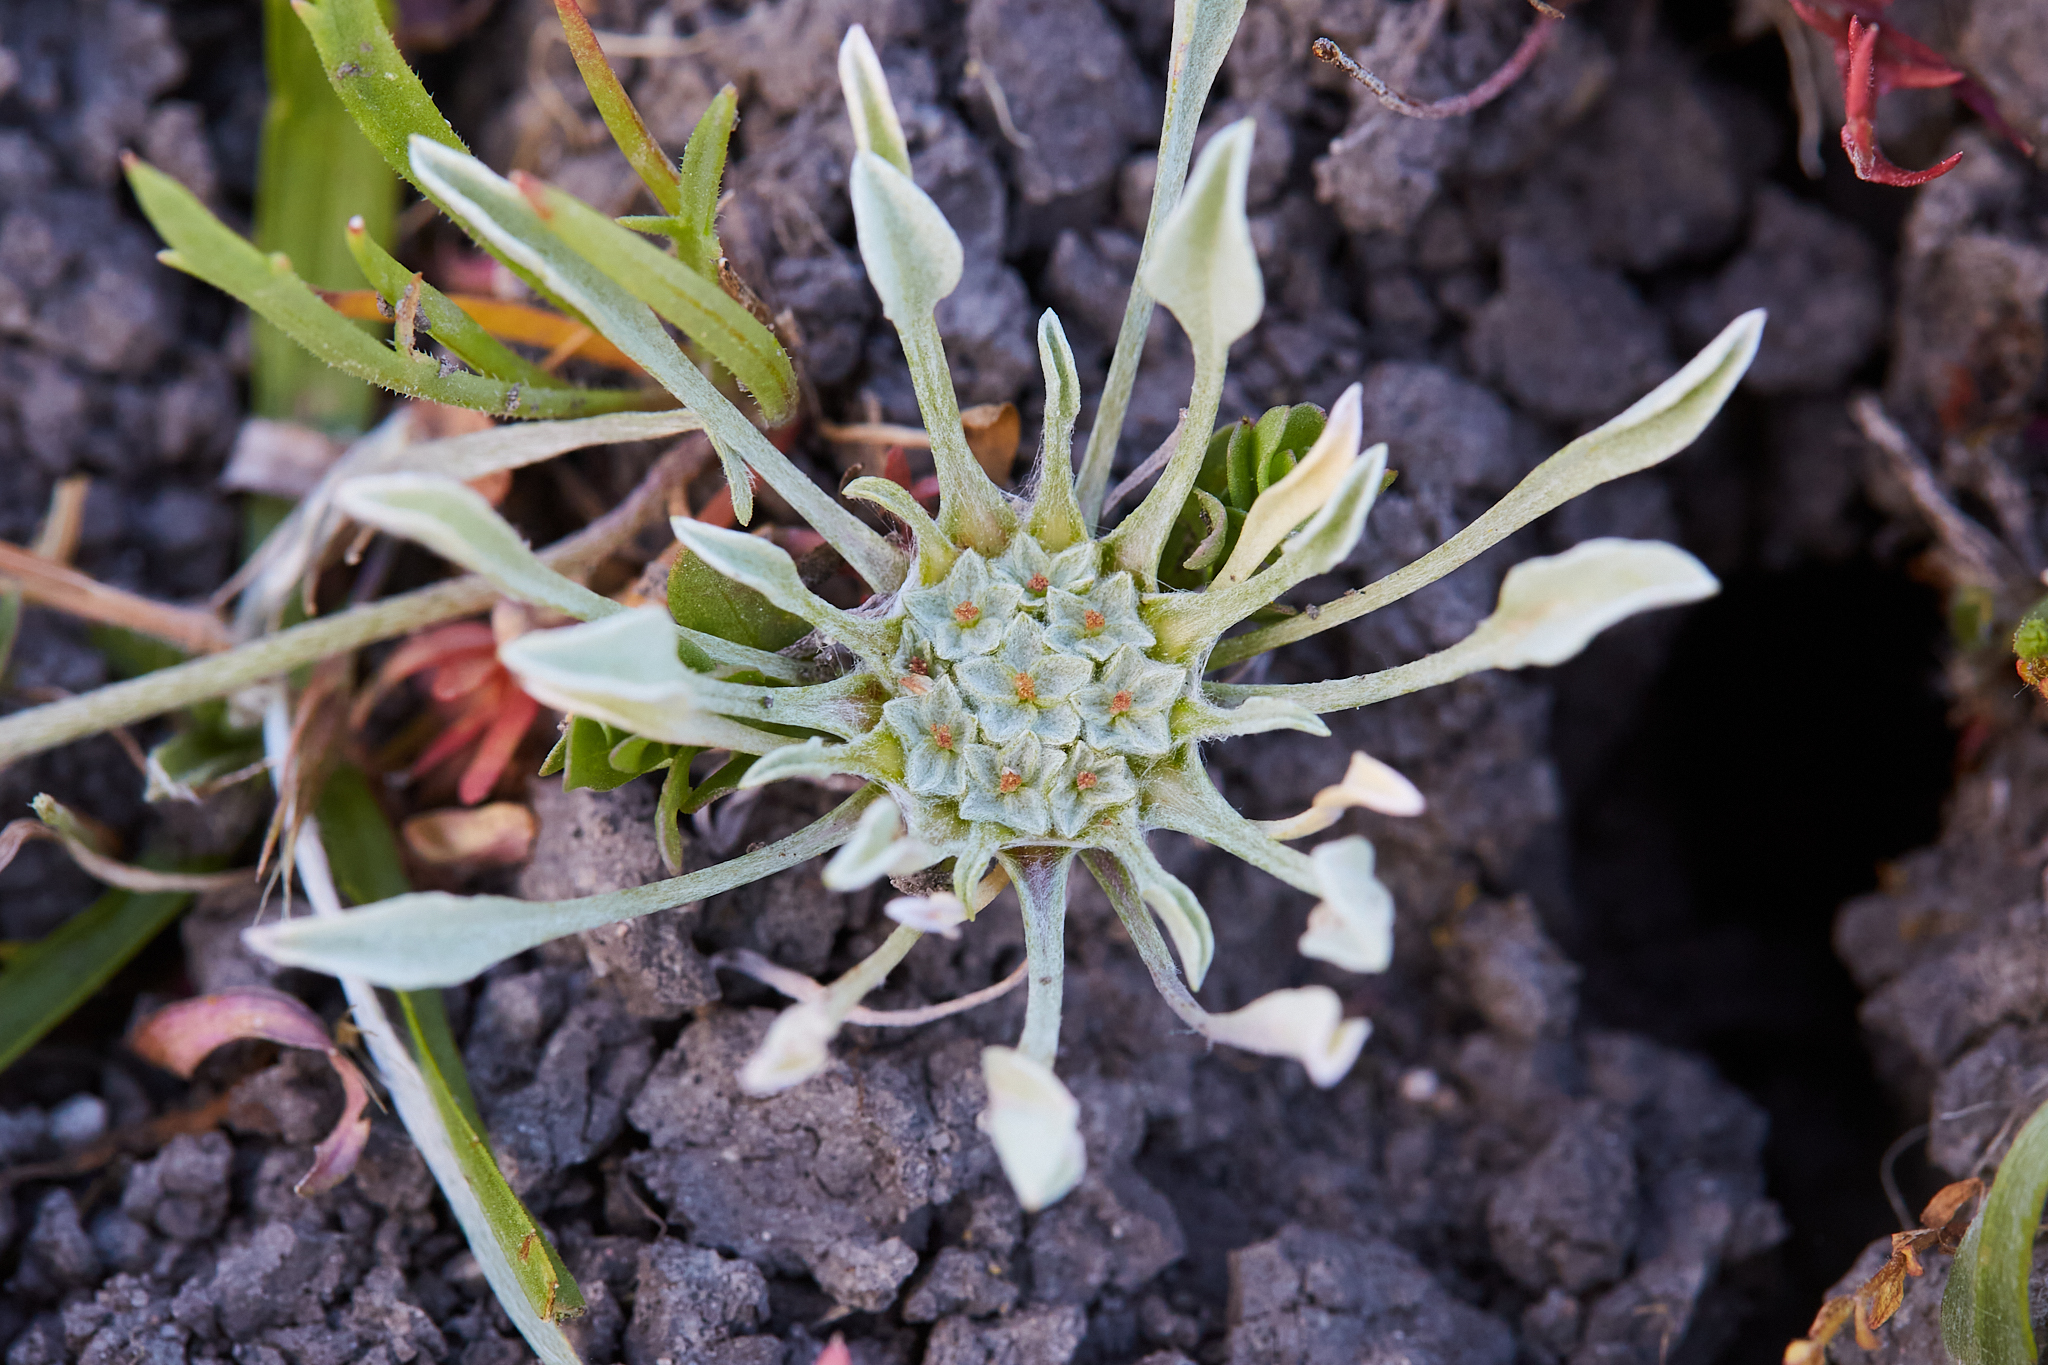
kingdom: Plantae
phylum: Tracheophyta
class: Magnoliopsida
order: Asterales
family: Asteraceae
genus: Hesperevax
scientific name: Hesperevax caulescens
